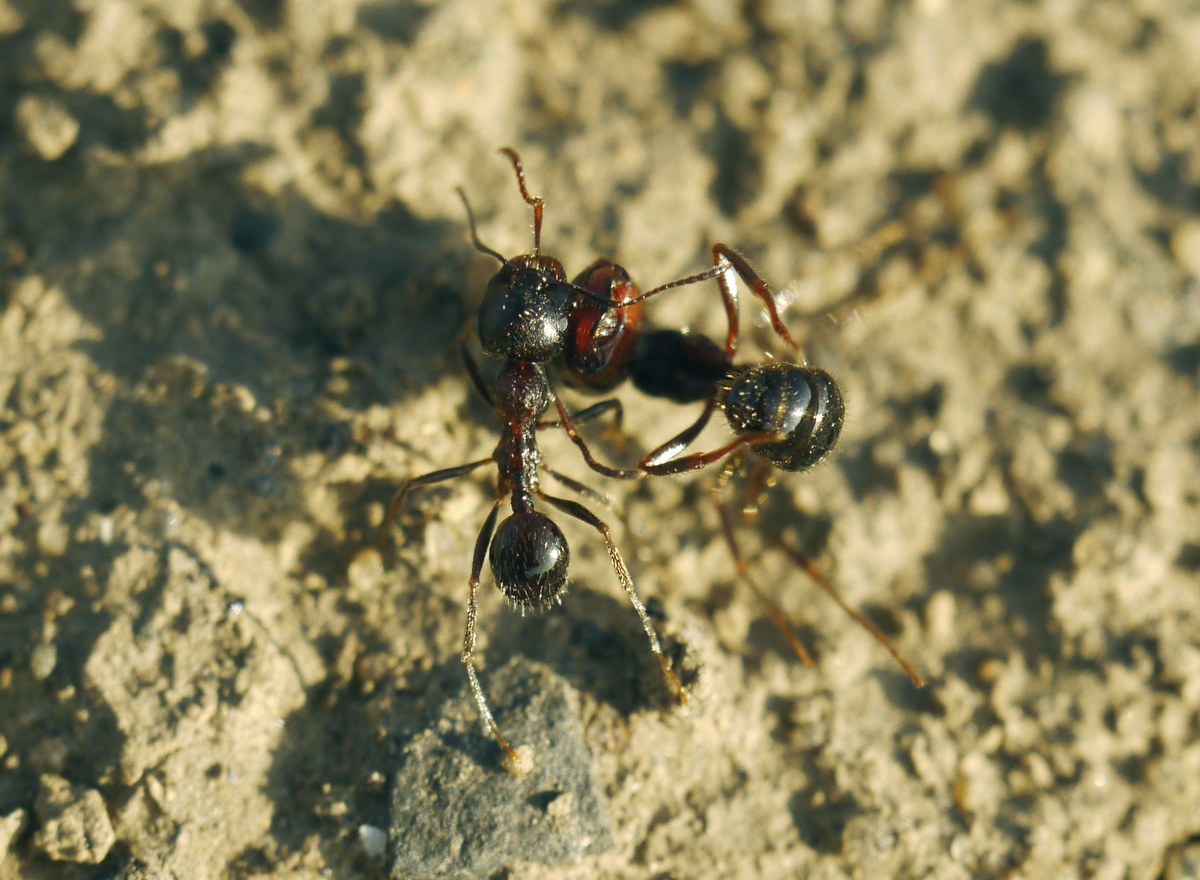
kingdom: Animalia
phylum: Arthropoda
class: Insecta
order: Hymenoptera
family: Formicidae
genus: Messor
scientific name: Messor structor
